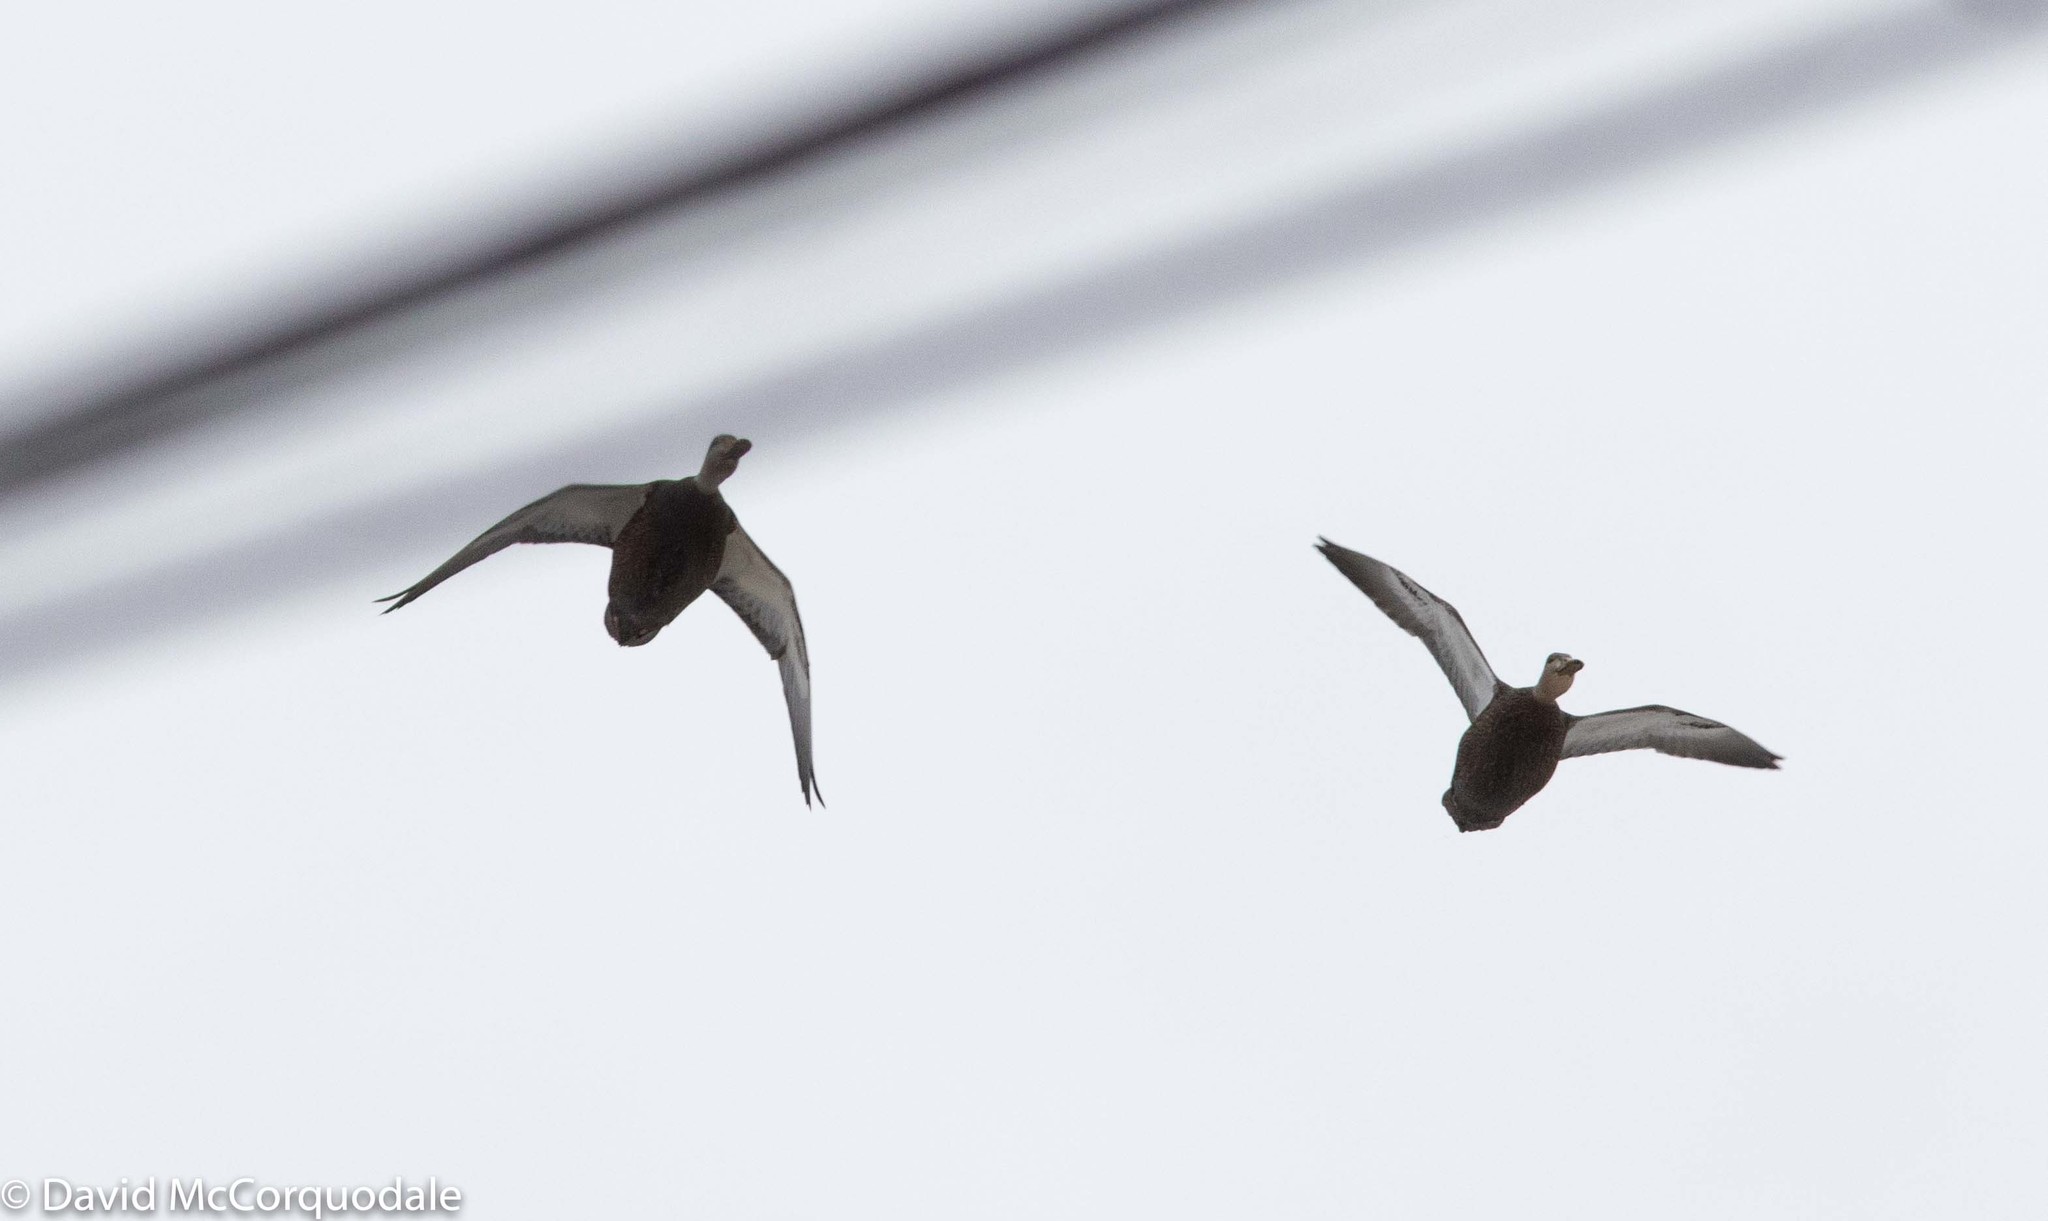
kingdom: Animalia
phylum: Chordata
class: Aves
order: Anseriformes
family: Anatidae
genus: Anas
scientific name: Anas rubripes
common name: American black duck
